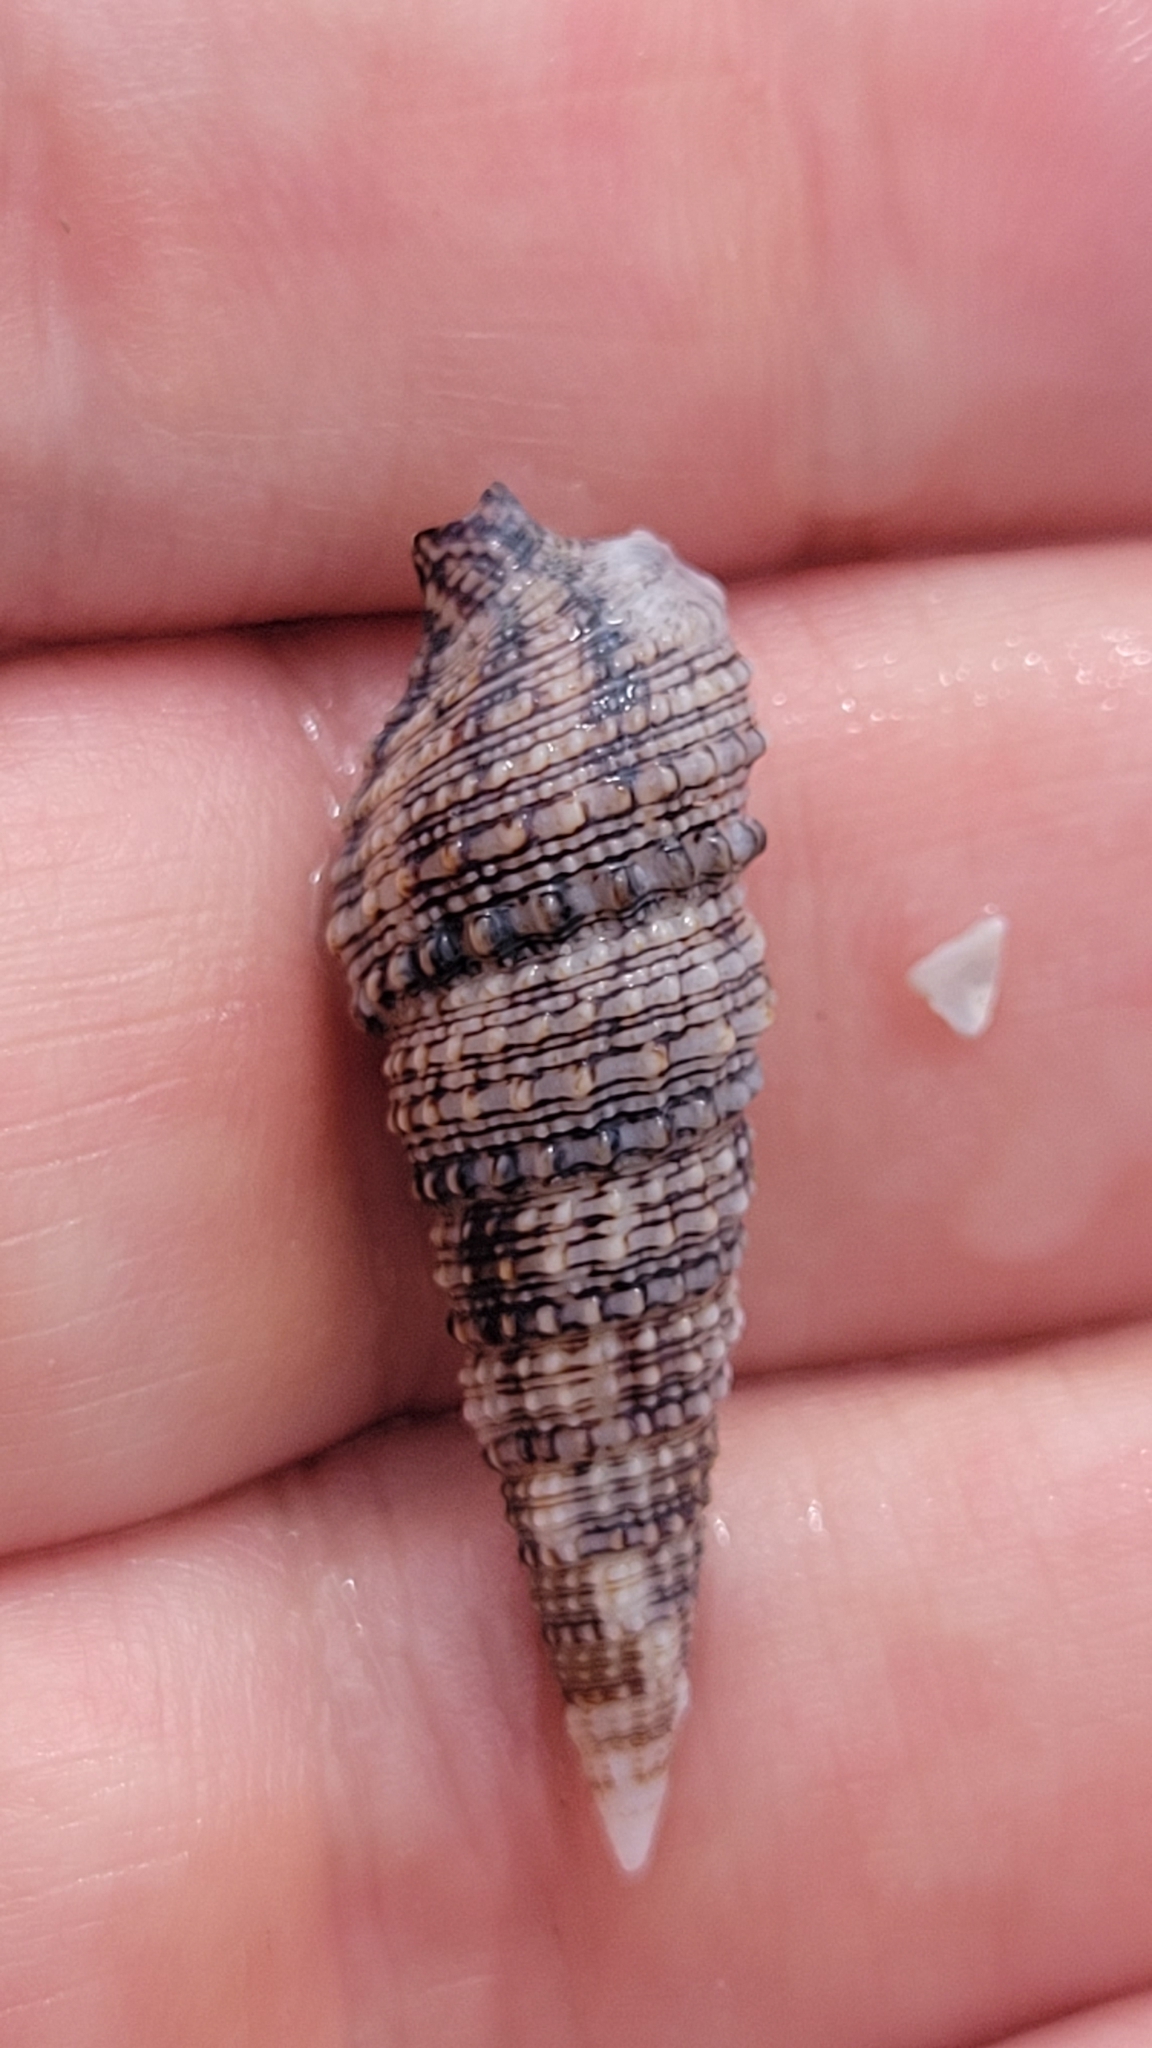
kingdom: Animalia
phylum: Mollusca
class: Gastropoda
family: Cerithiidae
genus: Cerithium
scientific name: Cerithium atratum
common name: Dark cerith
